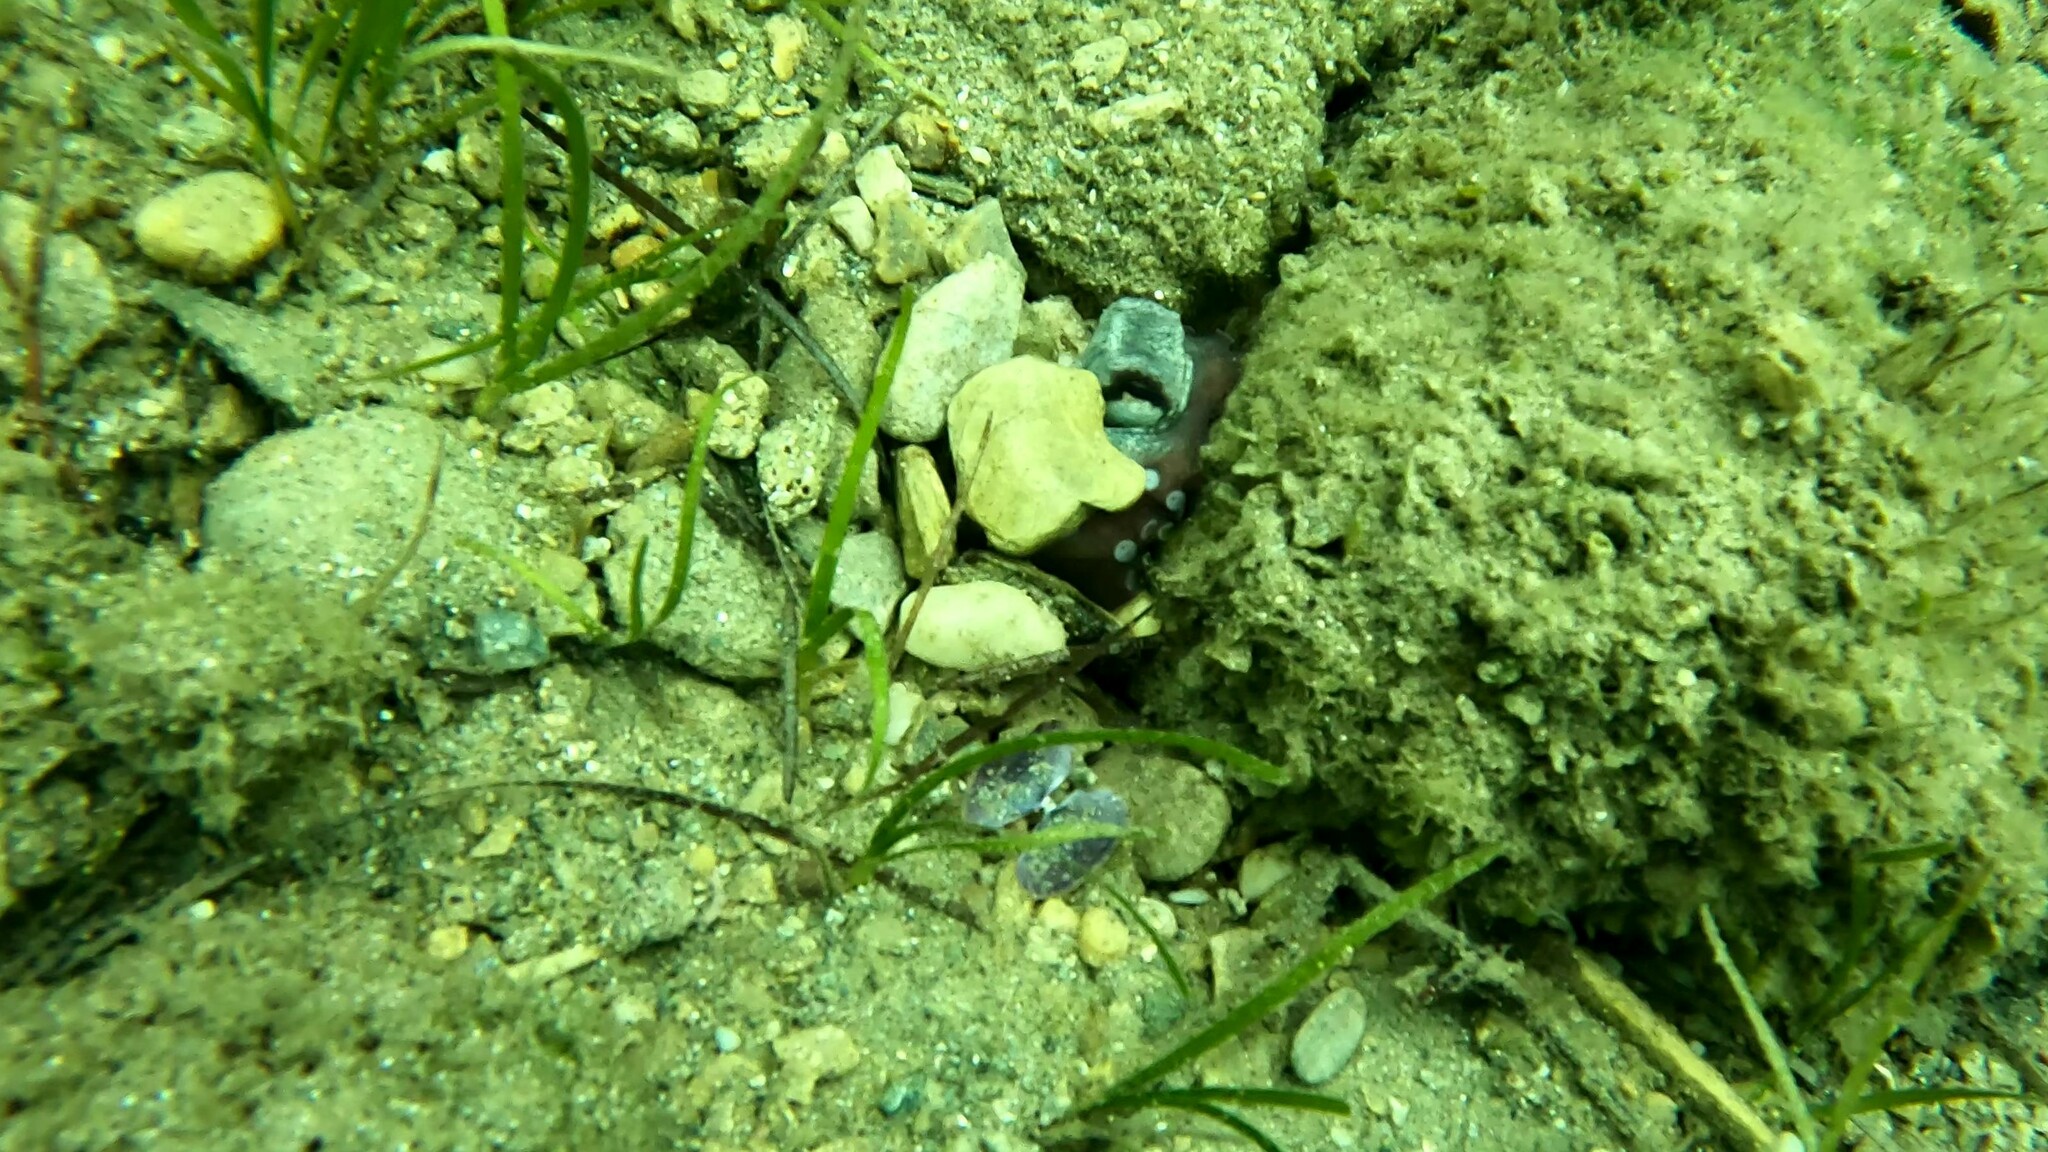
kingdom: Animalia
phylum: Mollusca
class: Cephalopoda
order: Octopoda
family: Octopodidae
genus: Octopus
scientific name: Octopus vulgaris
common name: Common octopus
